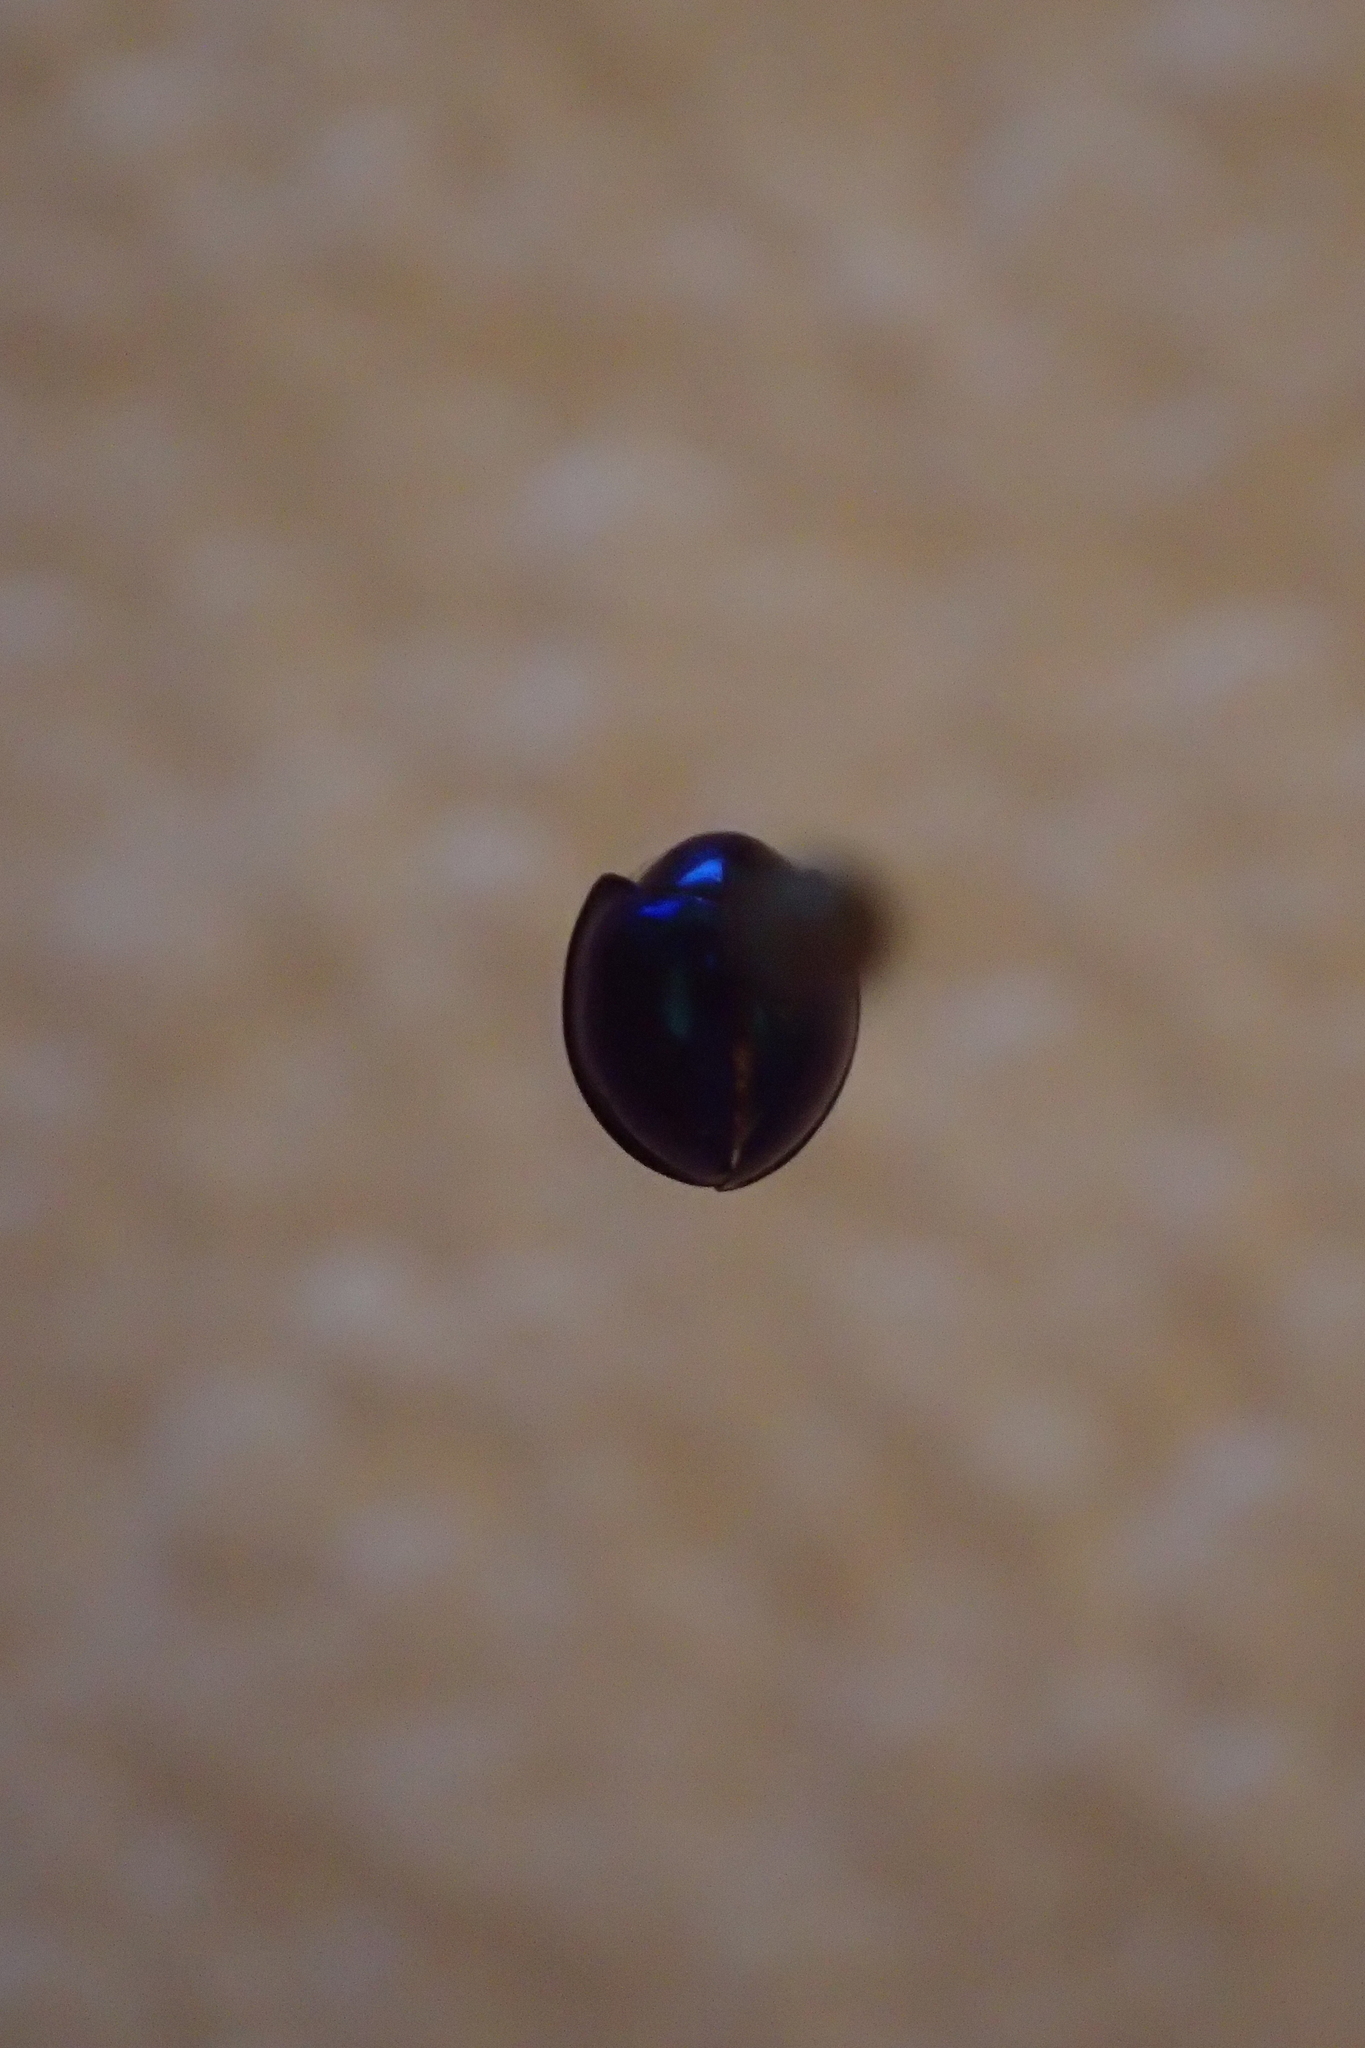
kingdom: Animalia
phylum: Arthropoda
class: Insecta
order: Coleoptera
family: Coccinellidae
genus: Halmus
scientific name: Halmus chalybeus
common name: Steel blue ladybird beetle
